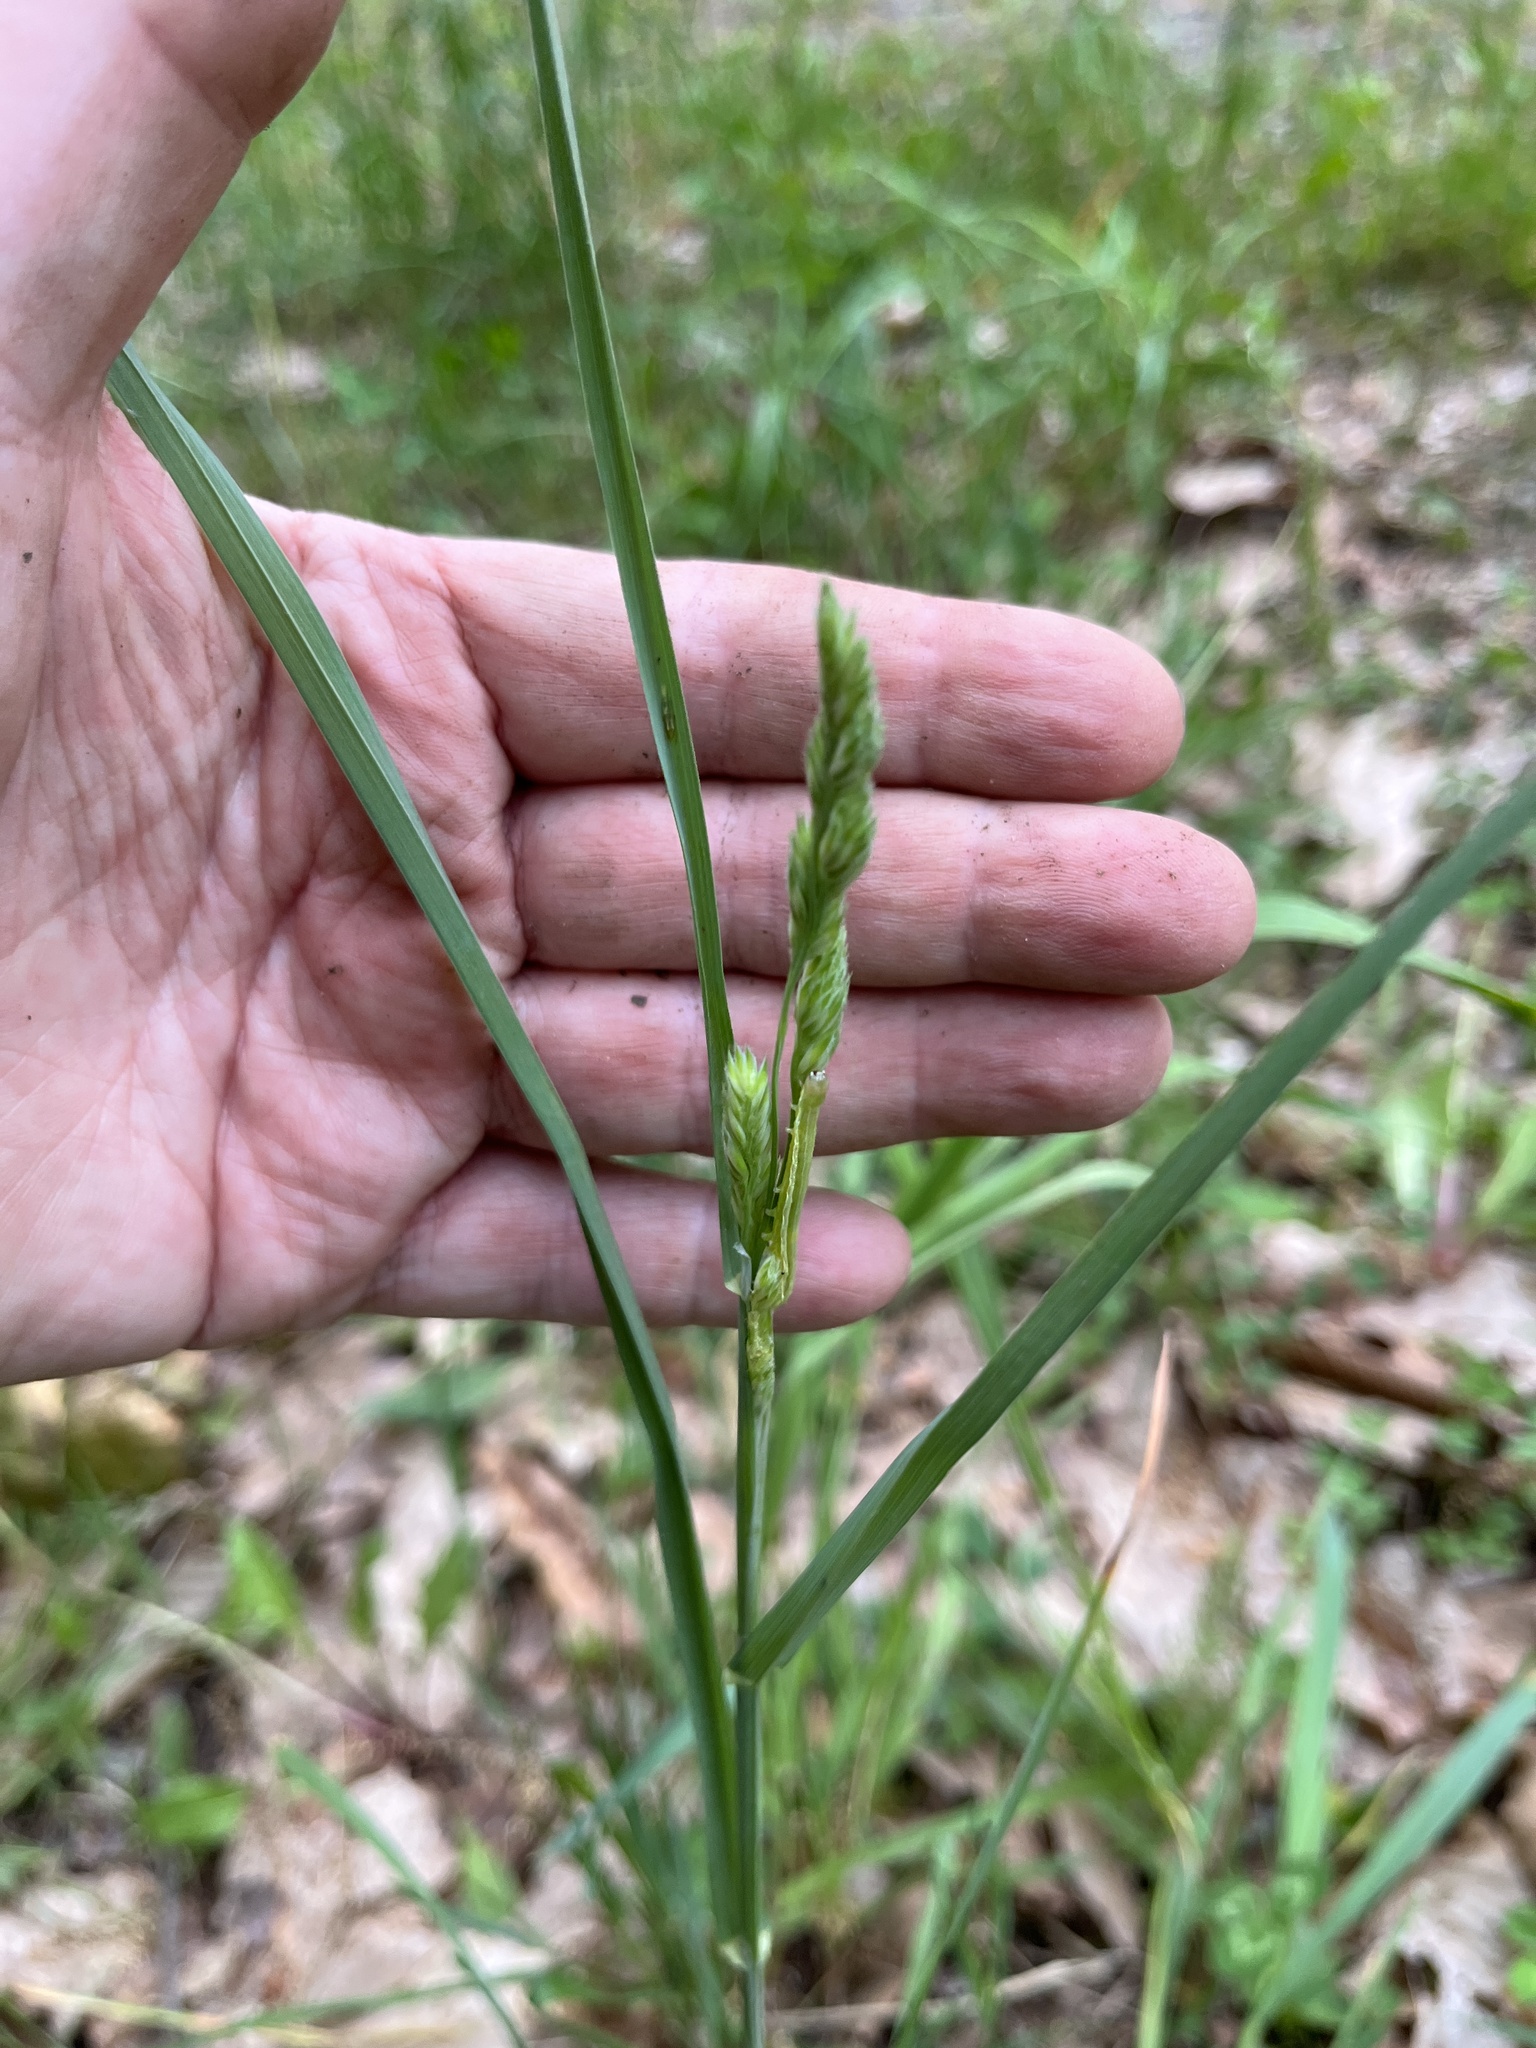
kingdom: Plantae
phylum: Tracheophyta
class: Liliopsida
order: Poales
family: Poaceae
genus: Dactylis
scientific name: Dactylis glomerata
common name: Orchardgrass
